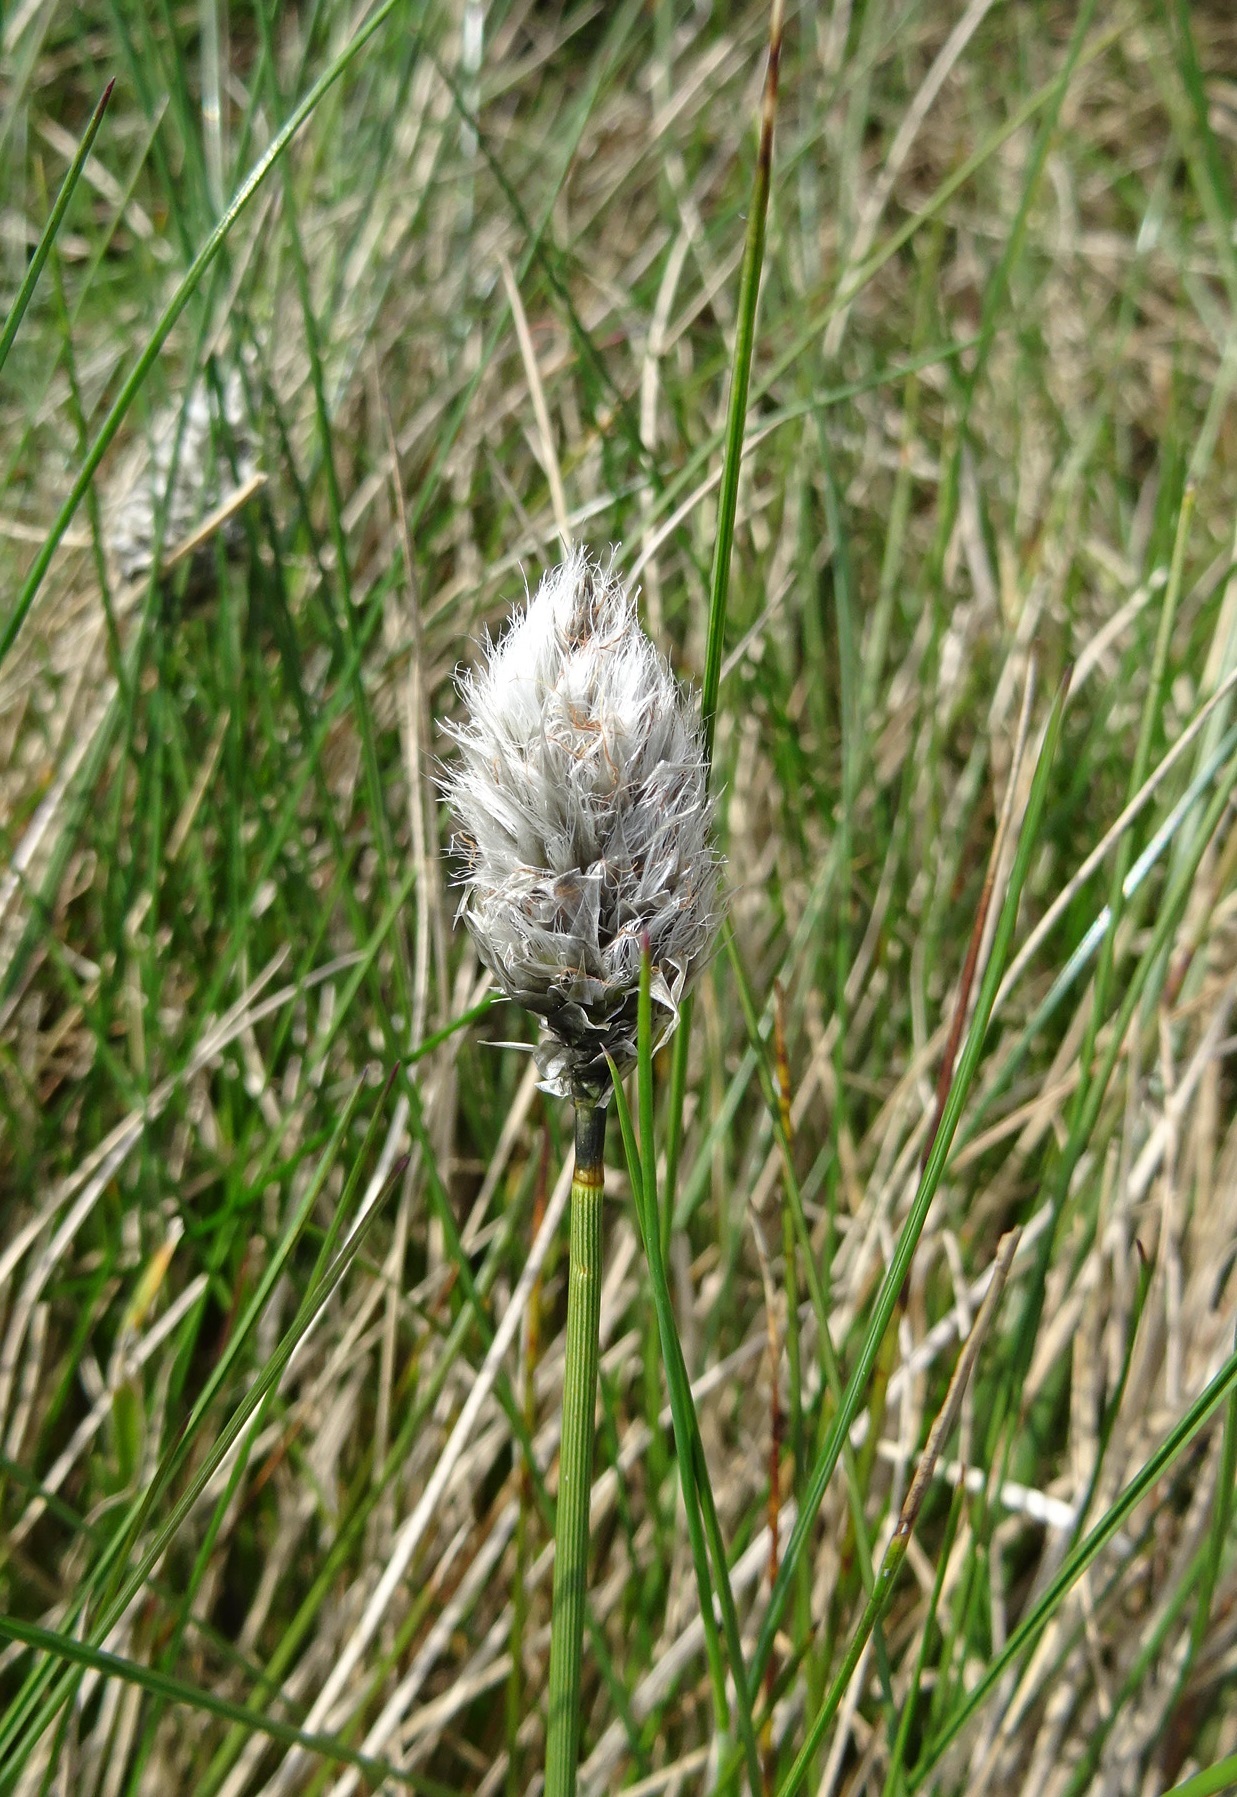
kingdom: Plantae
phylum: Tracheophyta
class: Liliopsida
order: Poales
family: Cyperaceae
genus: Eriophorum
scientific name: Eriophorum vaginatum
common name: Hare's-tail cottongrass
